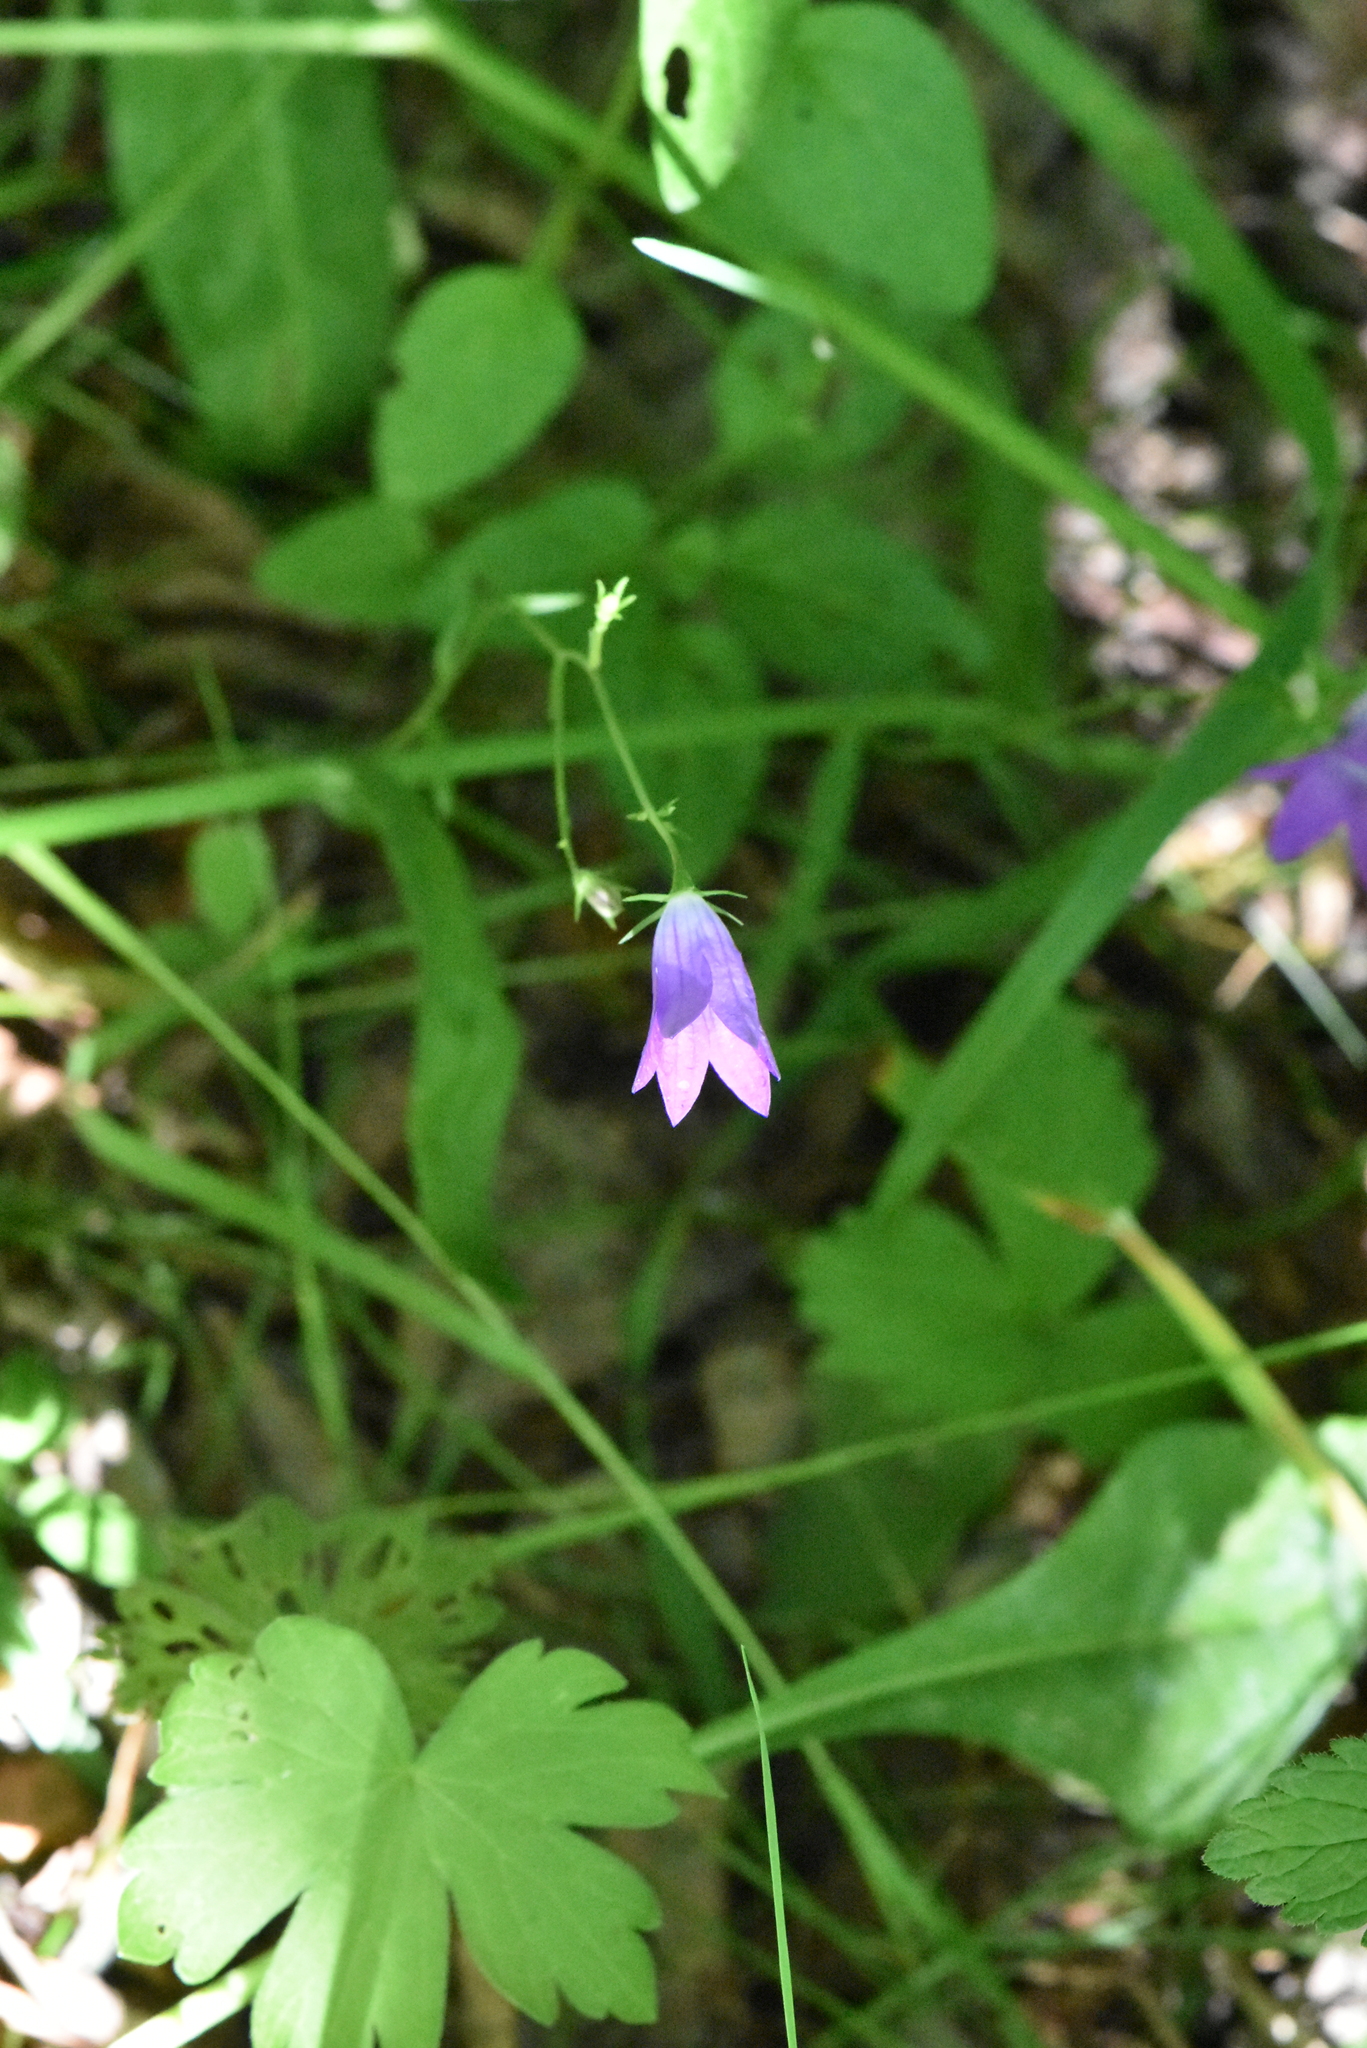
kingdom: Plantae
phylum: Tracheophyta
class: Magnoliopsida
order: Asterales
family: Campanulaceae
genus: Campanula
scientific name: Campanula patula
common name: Spreading bellflower
